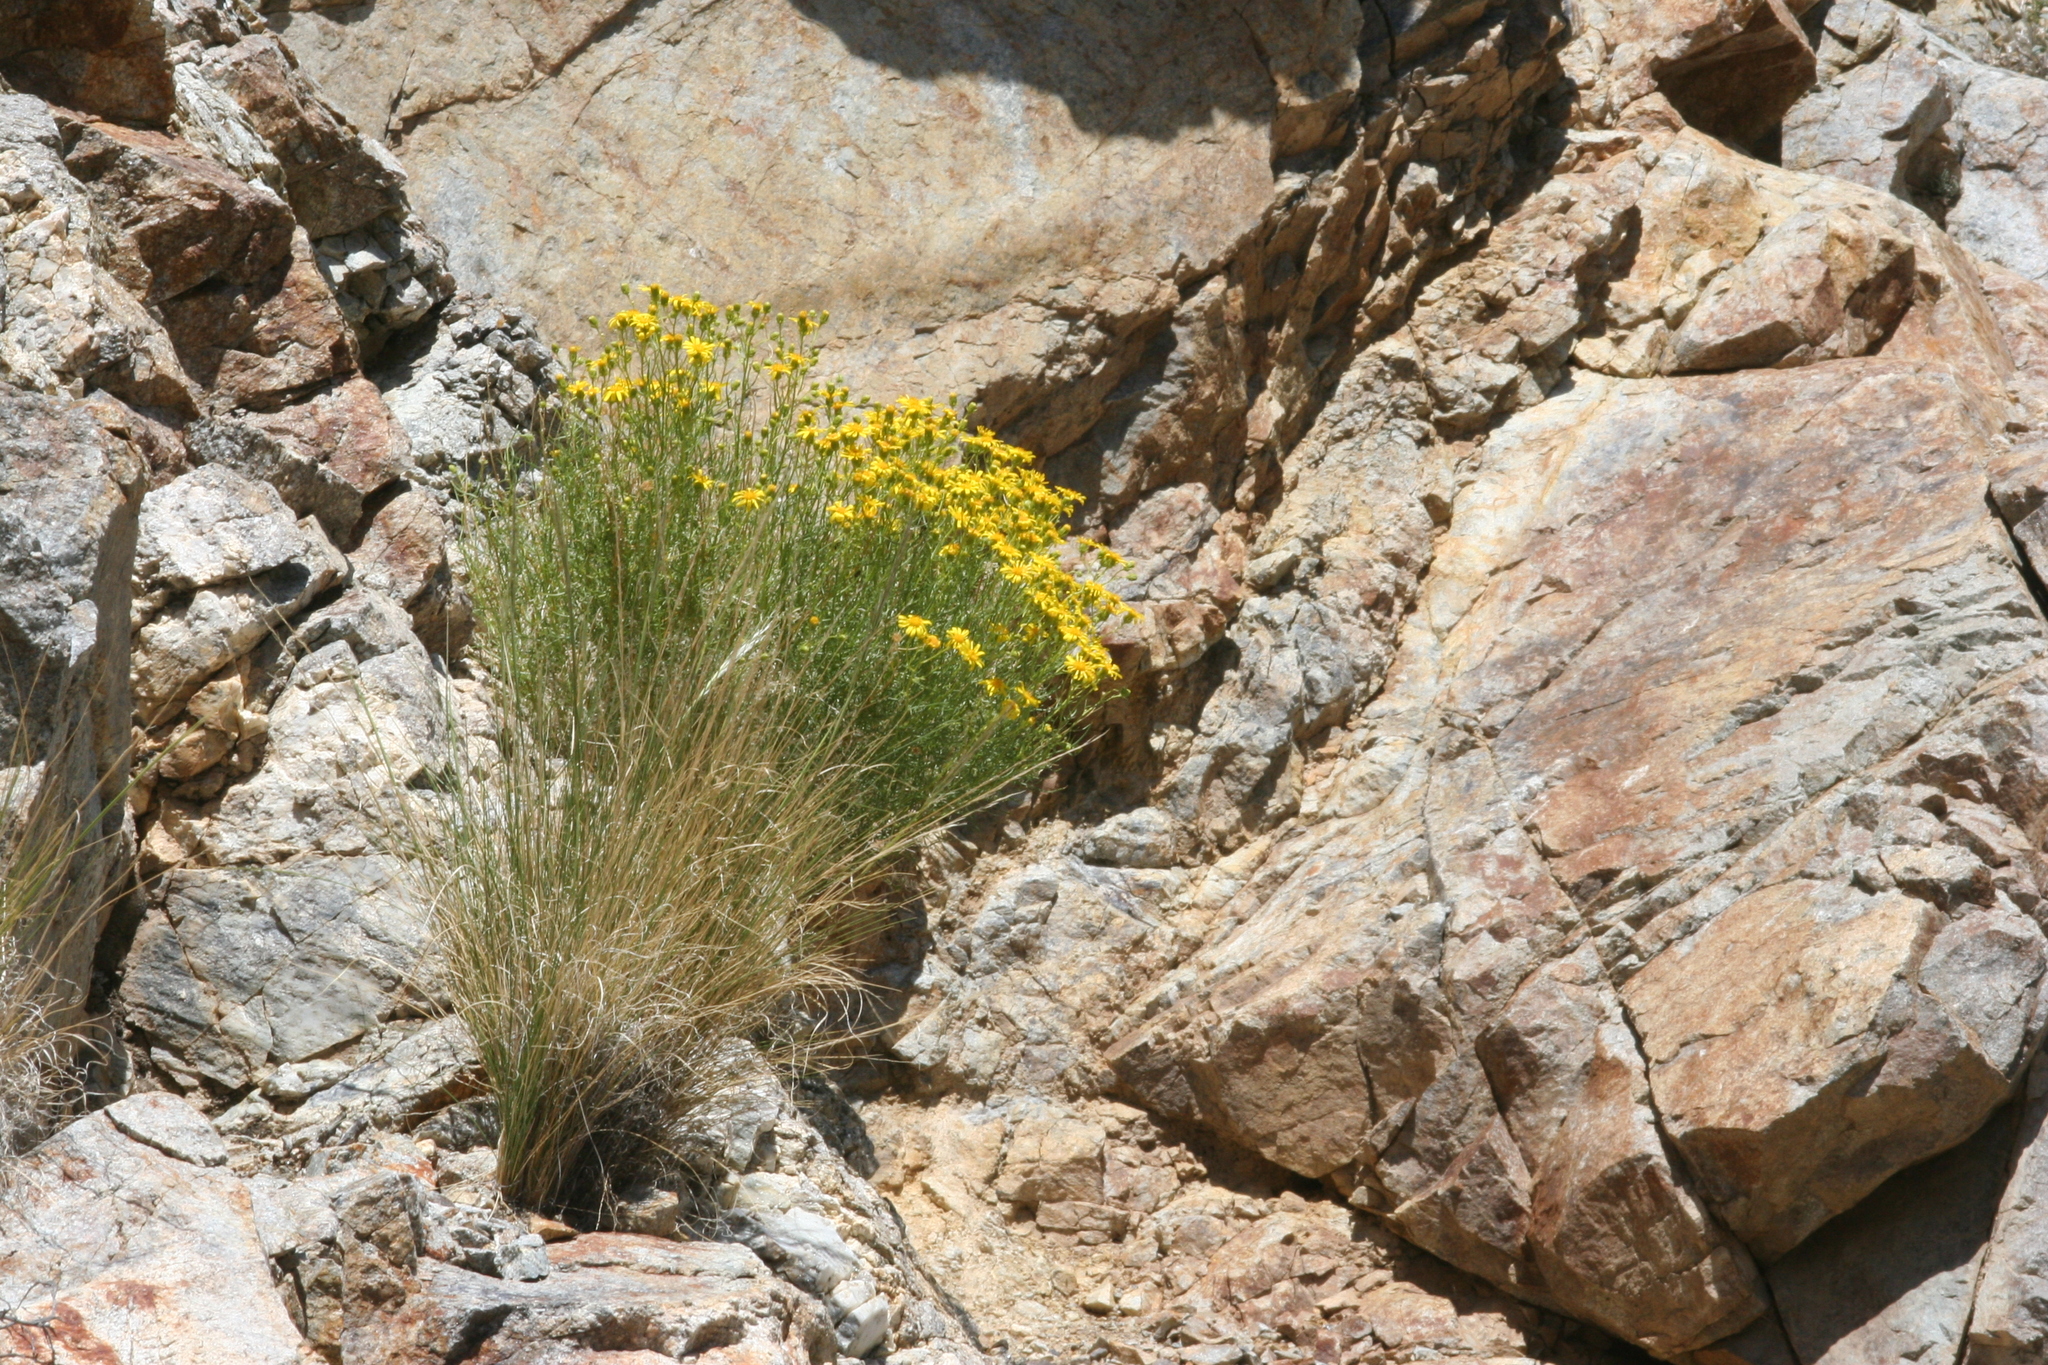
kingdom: Plantae
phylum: Tracheophyta
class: Magnoliopsida
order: Asterales
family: Asteraceae
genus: Senecio
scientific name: Senecio flaccidus
